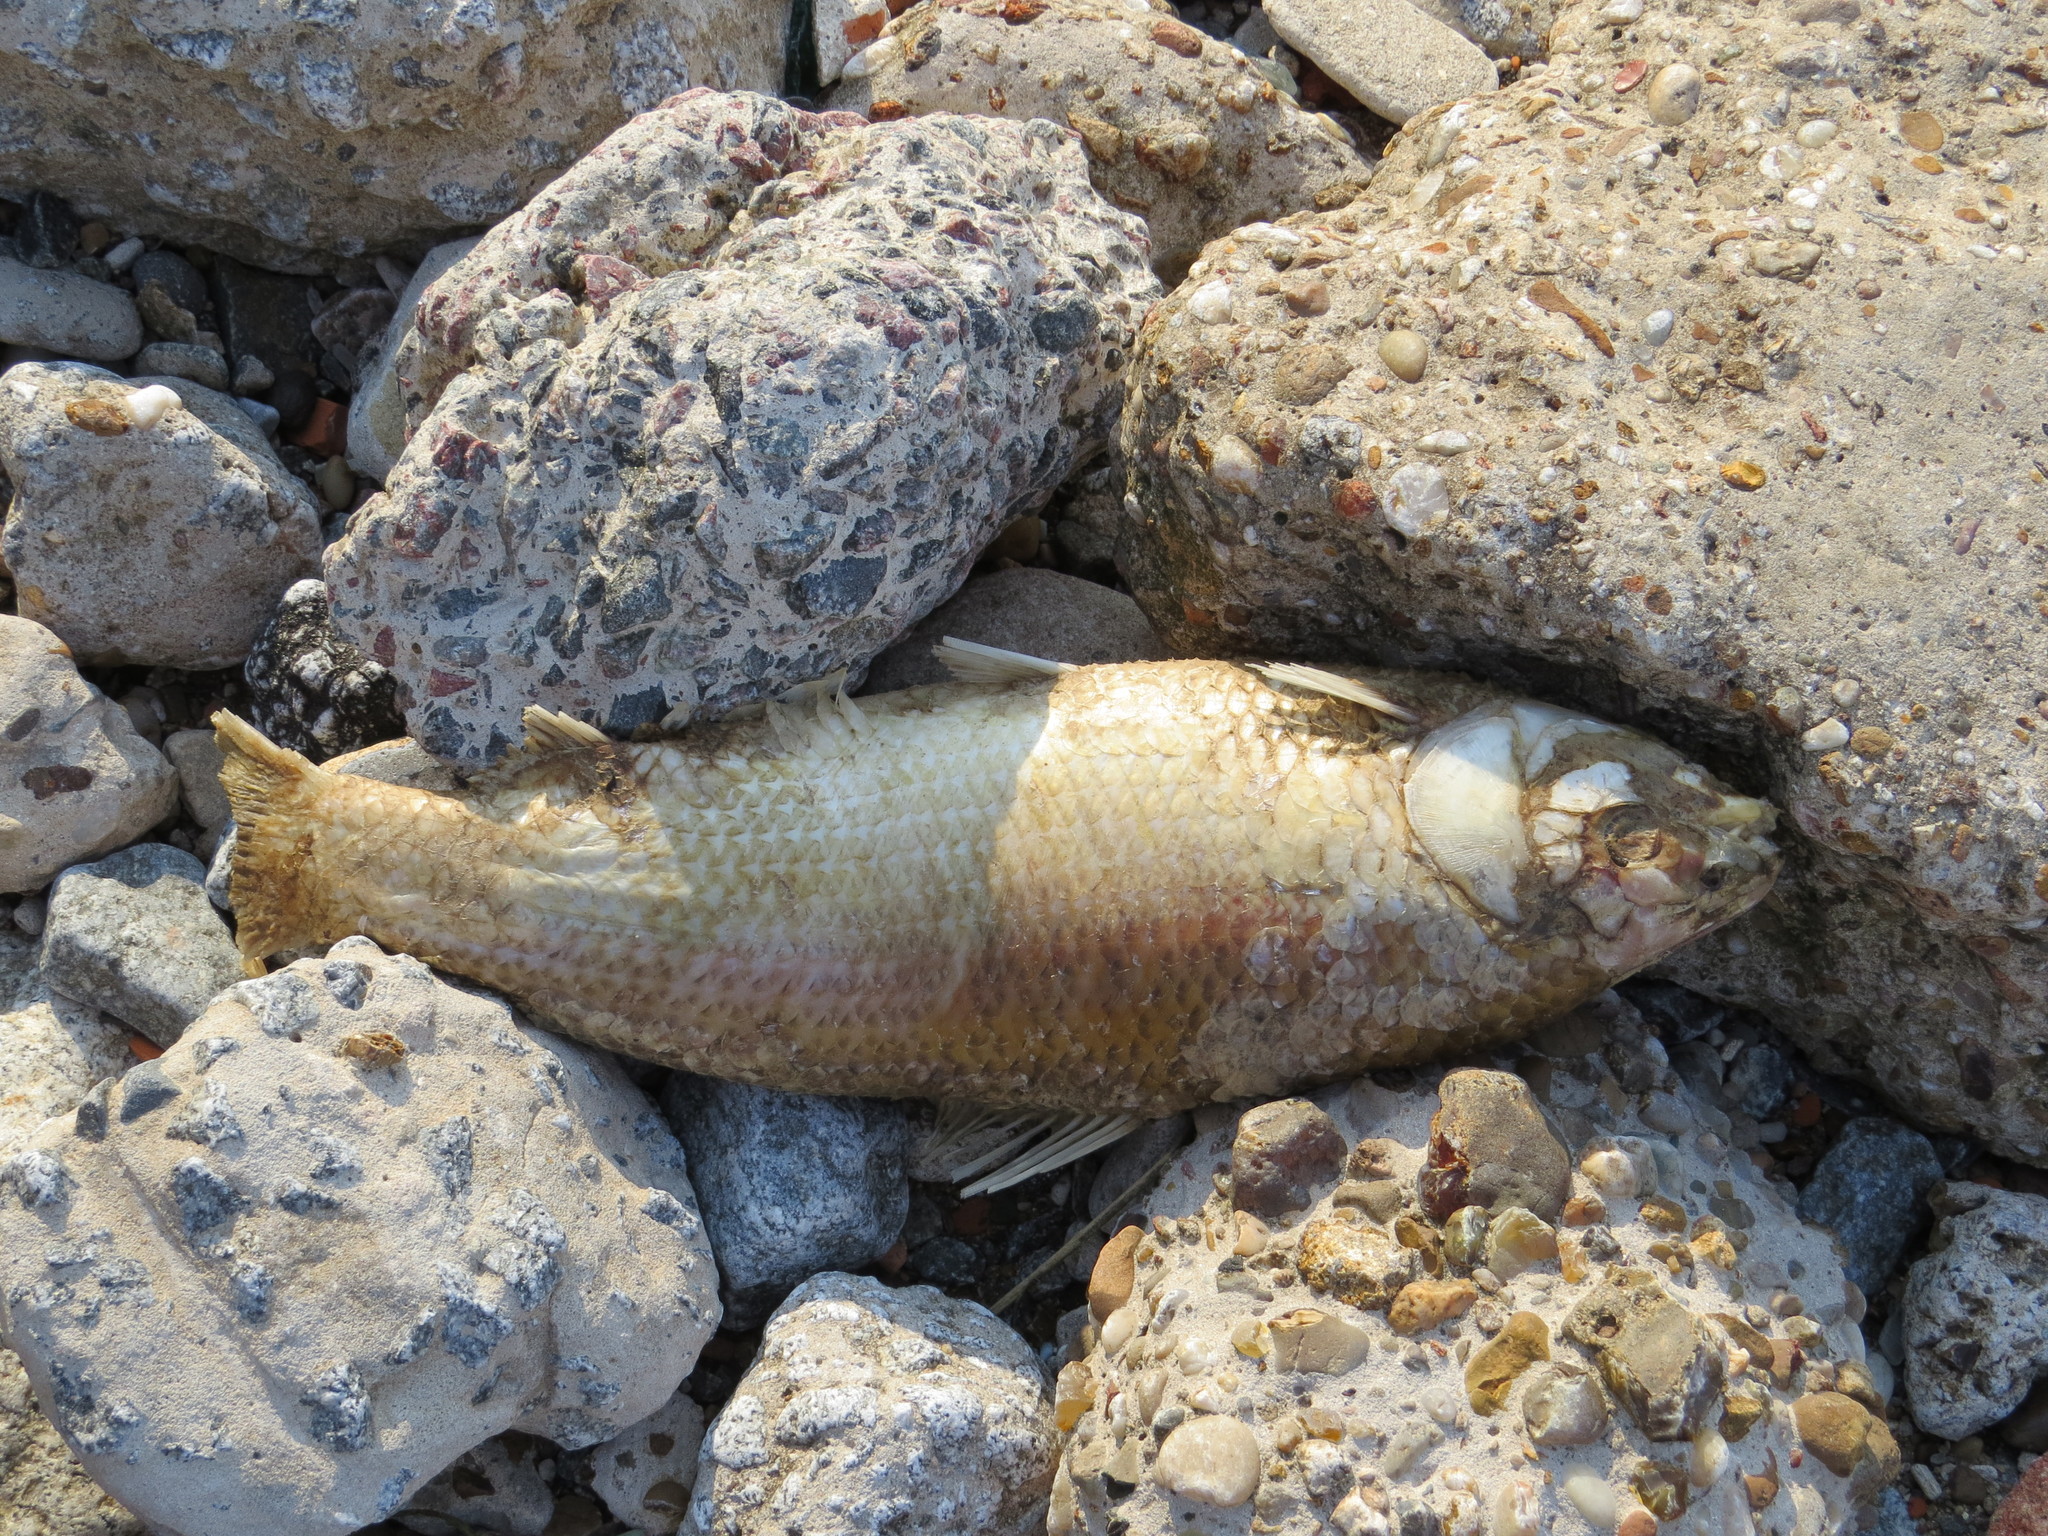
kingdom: Animalia
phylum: Chordata
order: Characiformes
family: Prochilodontidae
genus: Prochilodus
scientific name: Prochilodus lineatus
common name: Curimbata
